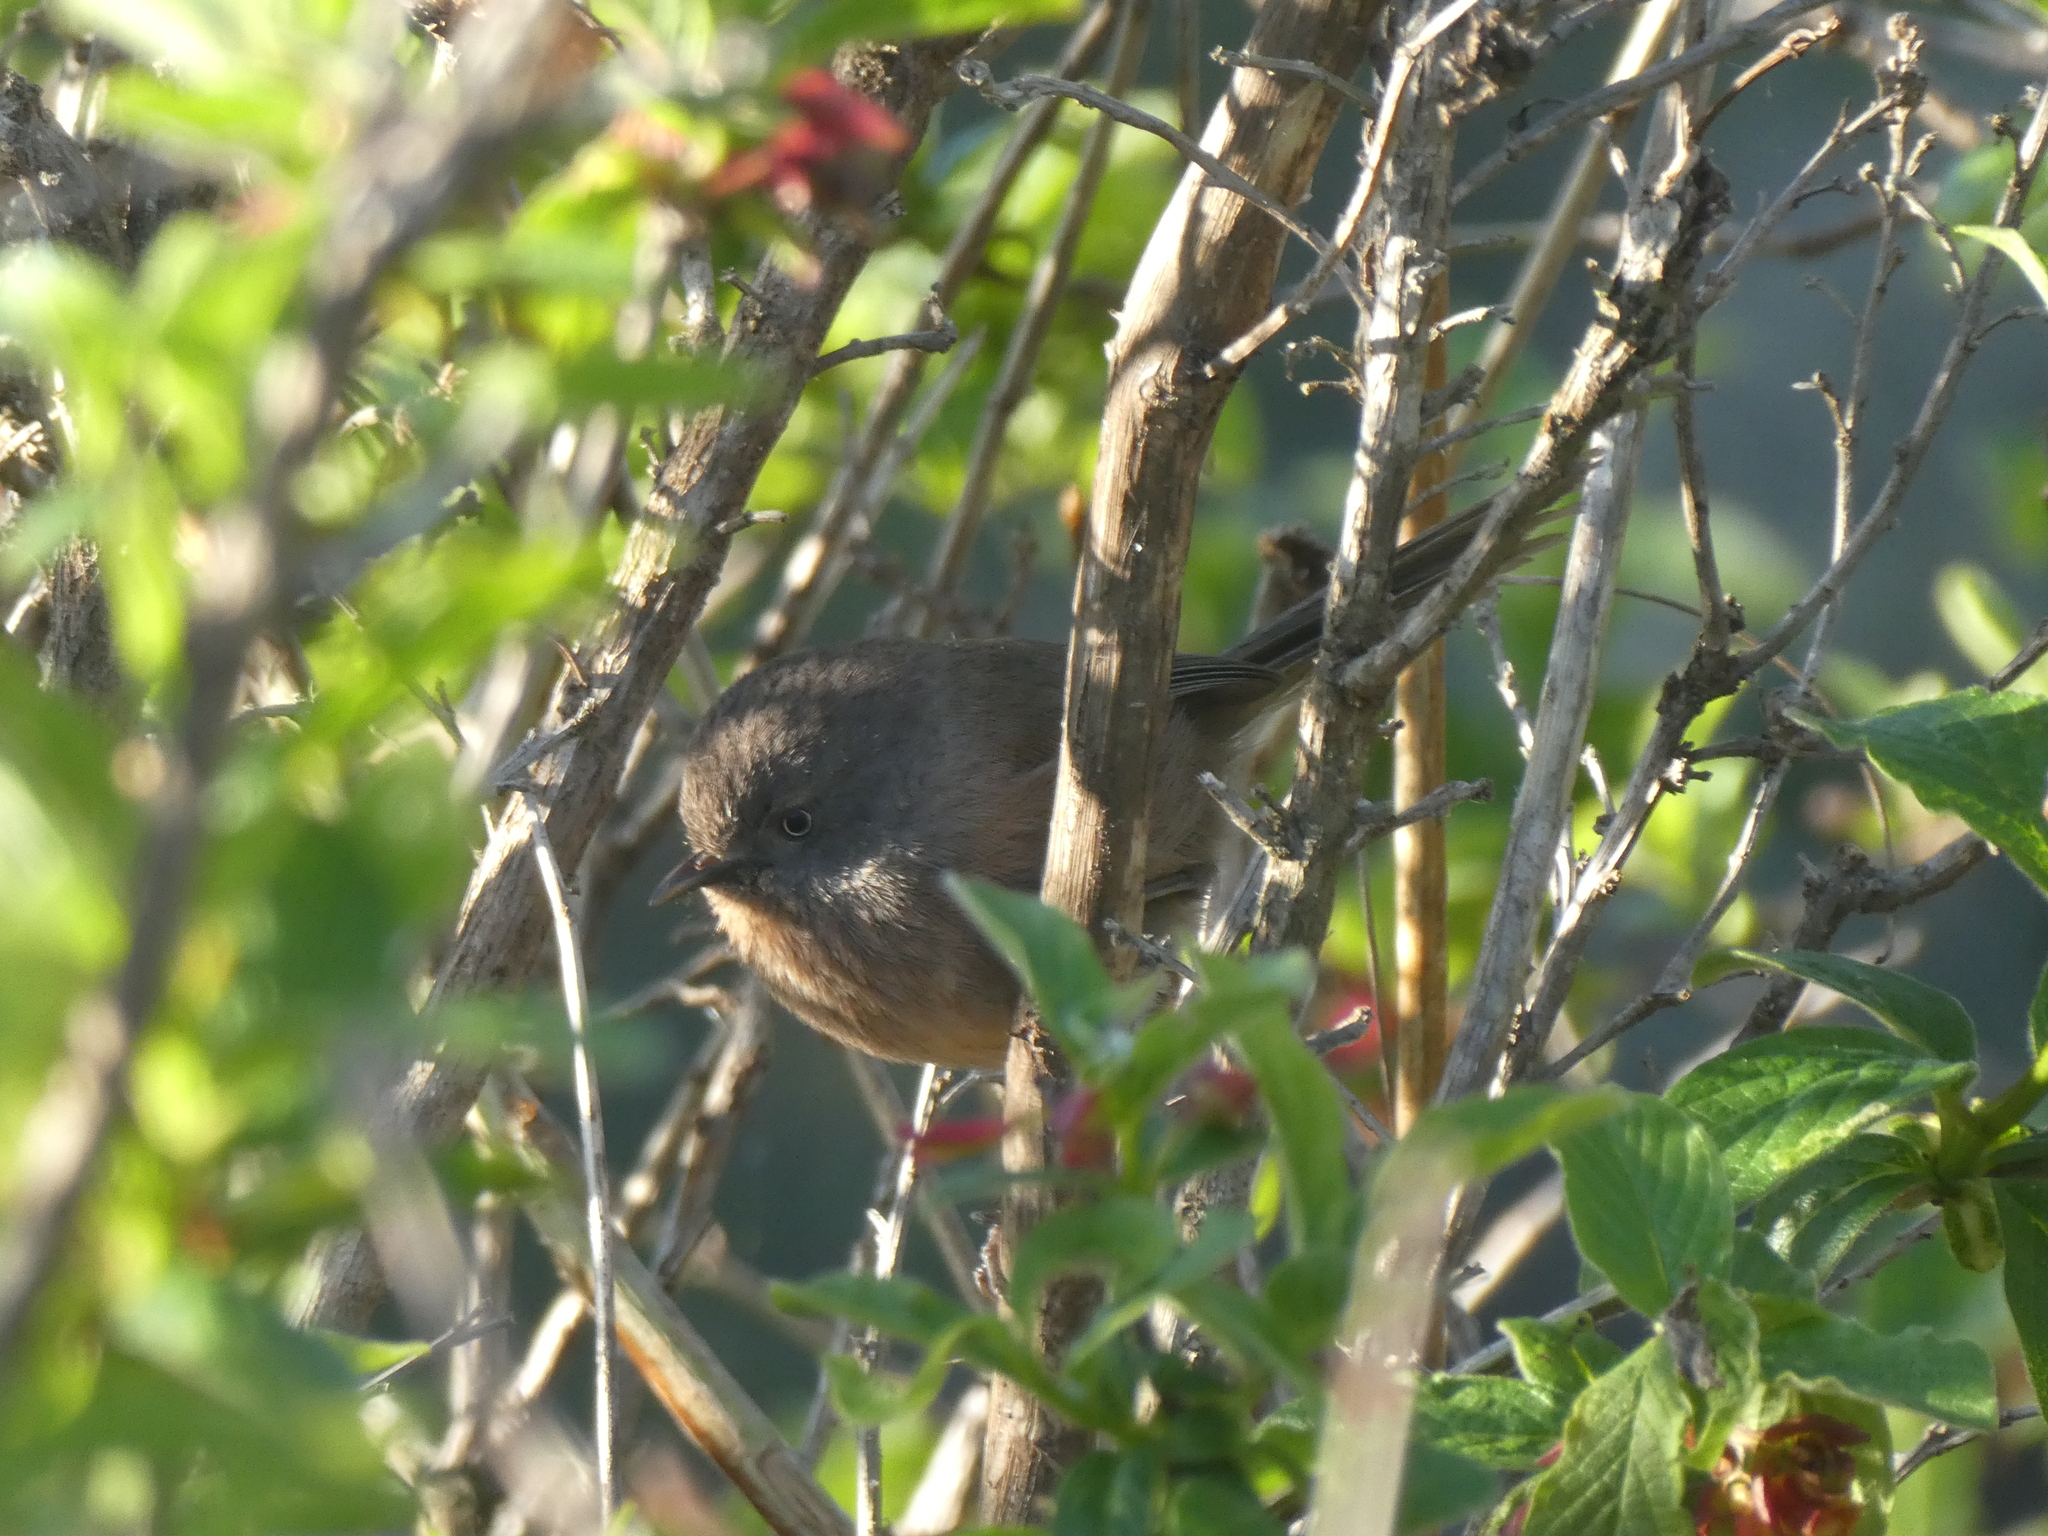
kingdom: Animalia
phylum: Chordata
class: Aves
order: Passeriformes
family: Sylviidae
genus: Chamaea
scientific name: Chamaea fasciata
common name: Wrentit
